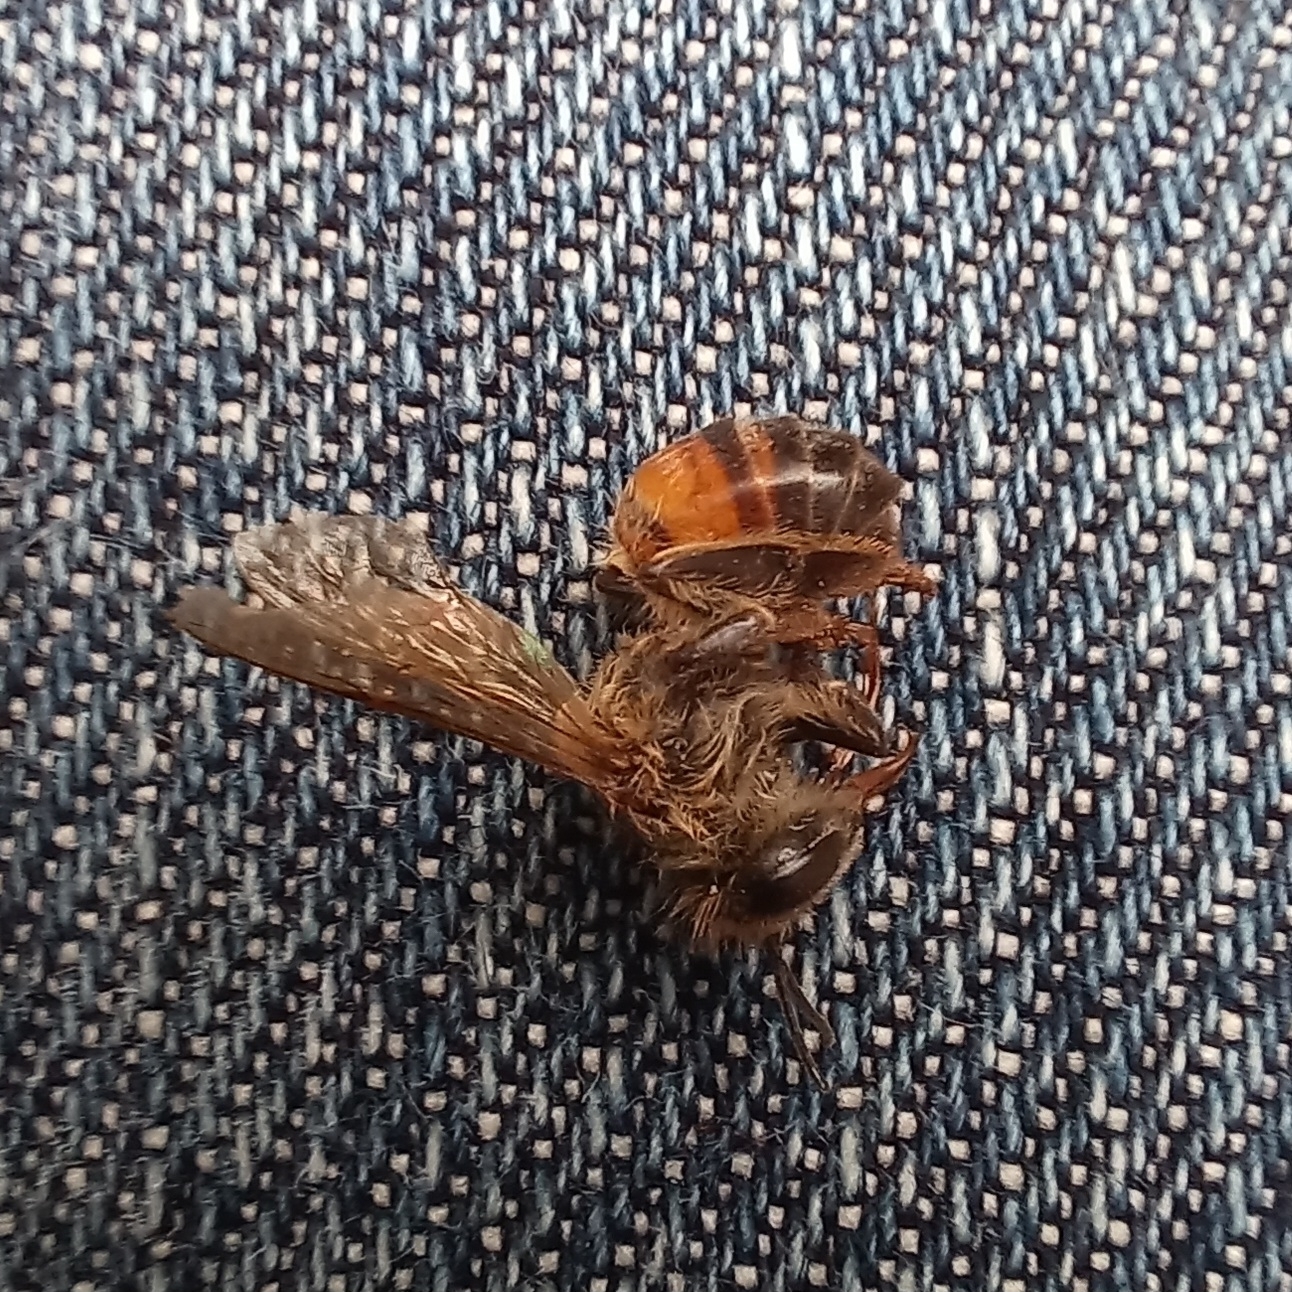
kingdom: Animalia
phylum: Arthropoda
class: Insecta
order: Hymenoptera
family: Apidae
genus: Apis
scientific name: Apis mellifera
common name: Honey bee
